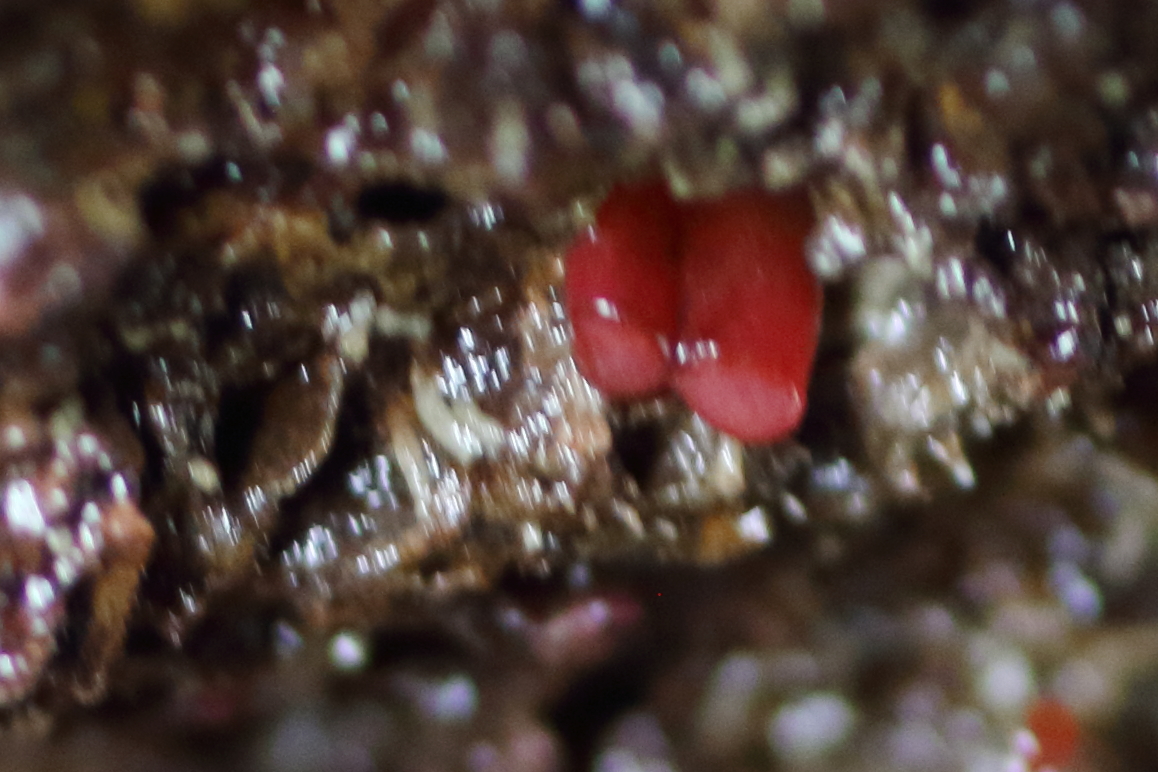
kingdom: Animalia
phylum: Mollusca
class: Bivalvia
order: Adapedonta
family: Hiatellidae
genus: Hiatella
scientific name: Hiatella arctica
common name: Arctic hiatella
